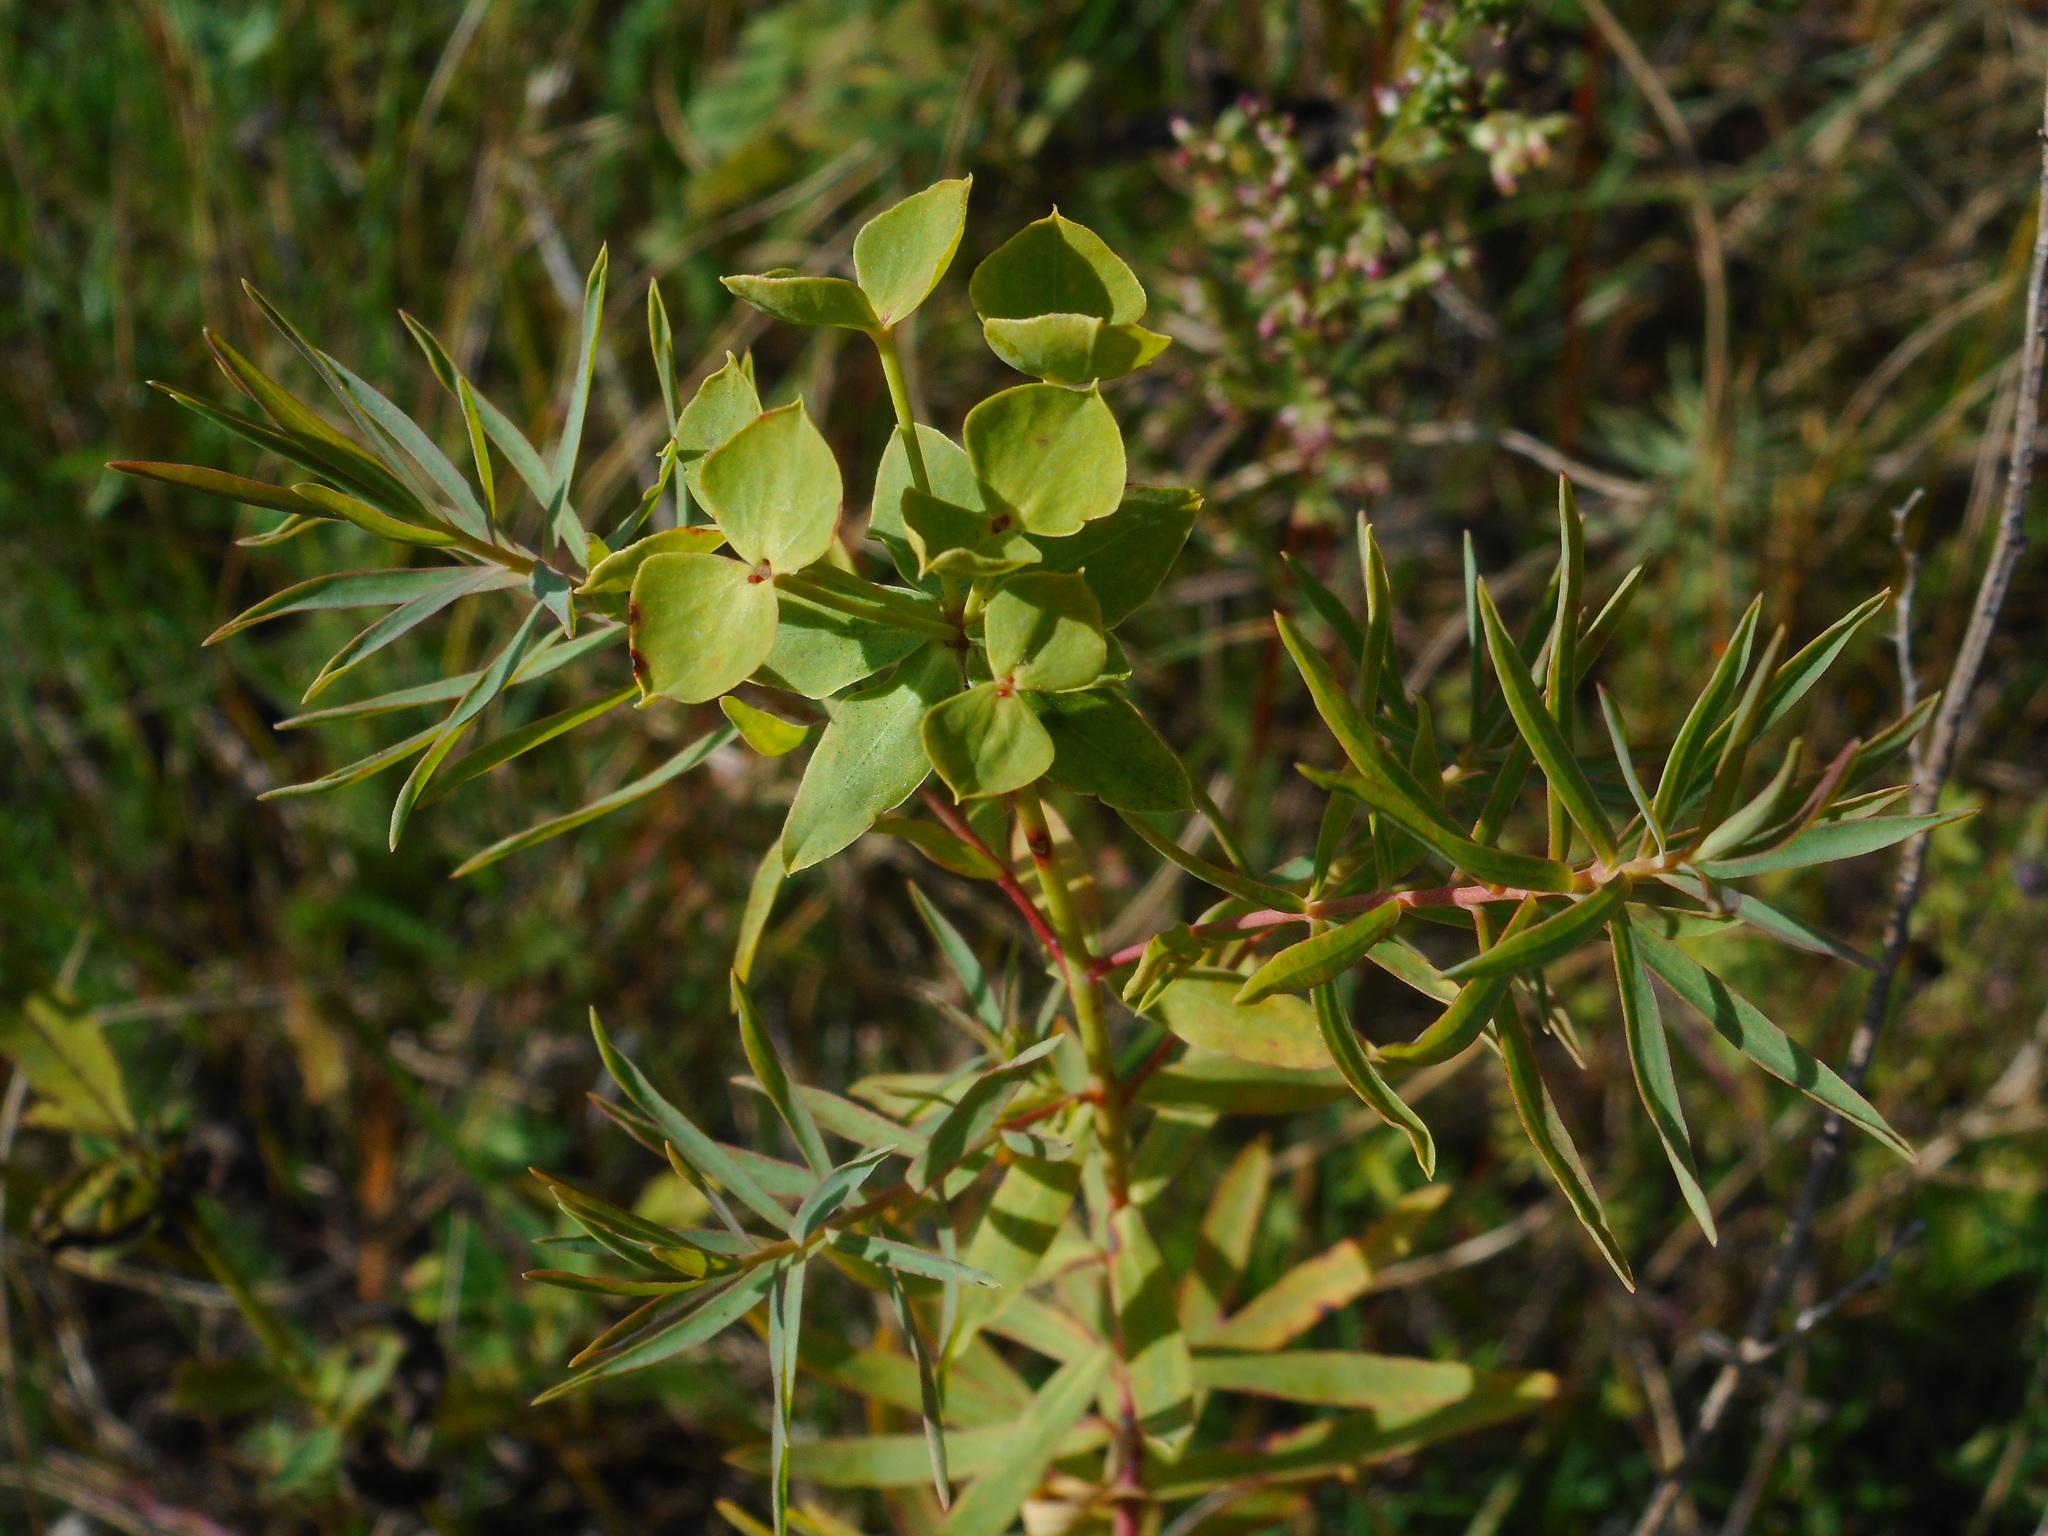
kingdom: Plantae
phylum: Tracheophyta
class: Magnoliopsida
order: Malpighiales
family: Euphorbiaceae
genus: Euphorbia
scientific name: Euphorbia virgata
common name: Leafy spurge
